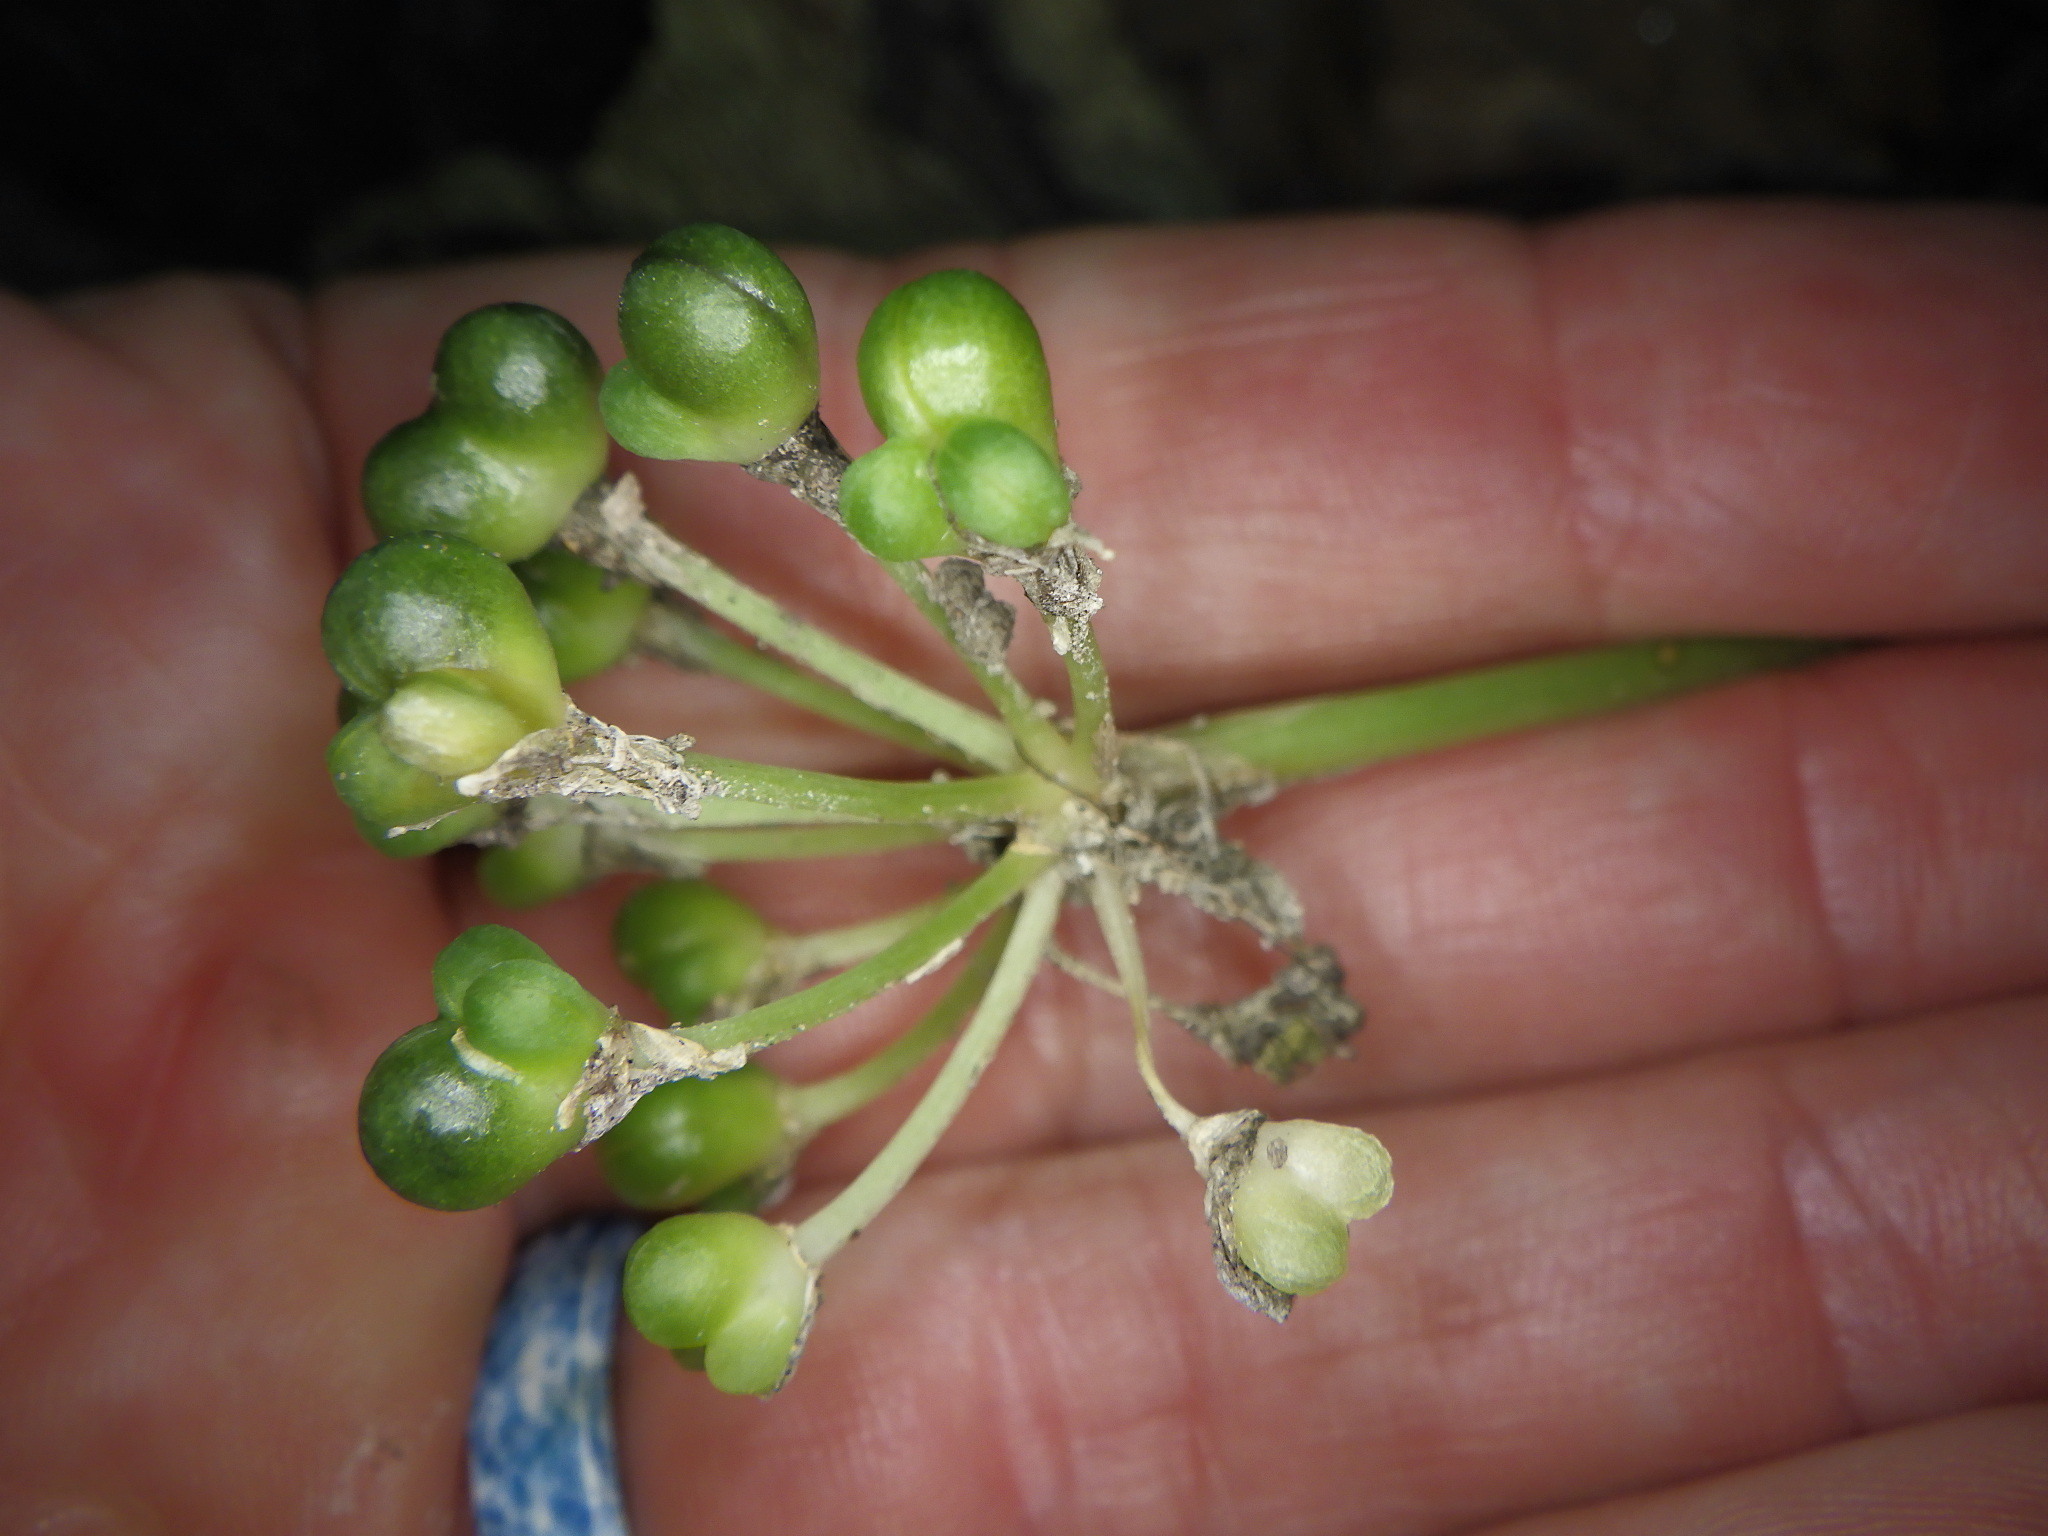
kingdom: Plantae
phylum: Tracheophyta
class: Liliopsida
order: Asparagales
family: Amaryllidaceae
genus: Allium
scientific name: Allium tricoccum
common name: Ramp
